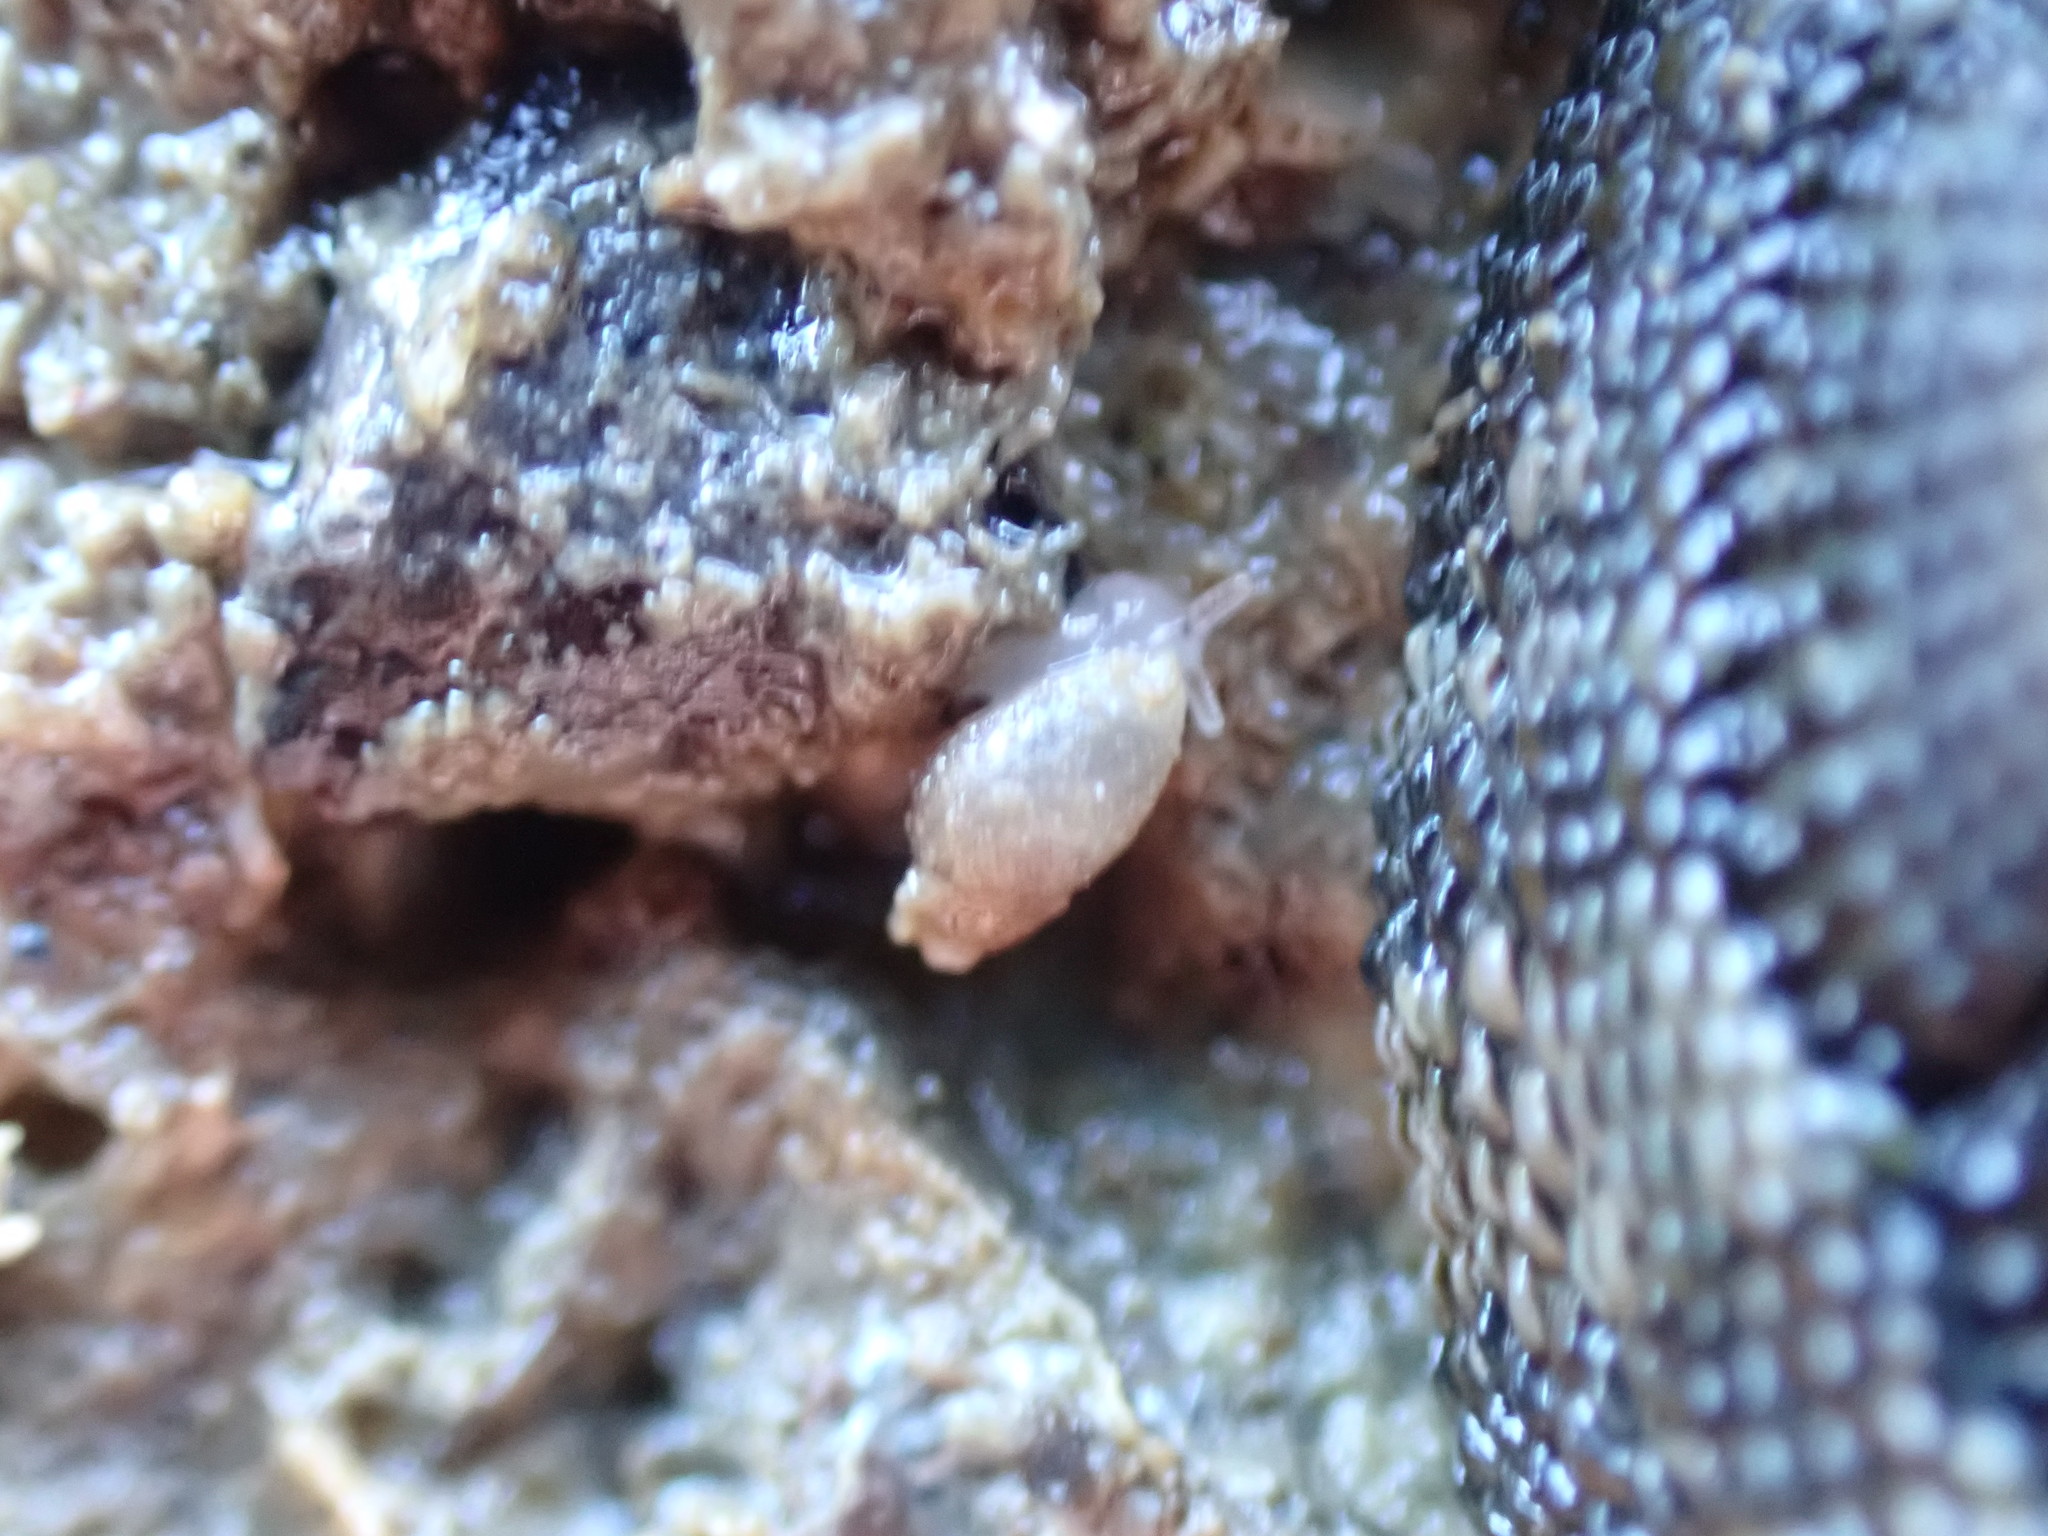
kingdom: Animalia
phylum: Mollusca
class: Gastropoda
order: Ellobiida
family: Ellobiidae
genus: Leuconopsis
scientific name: Leuconopsis obsoleta
